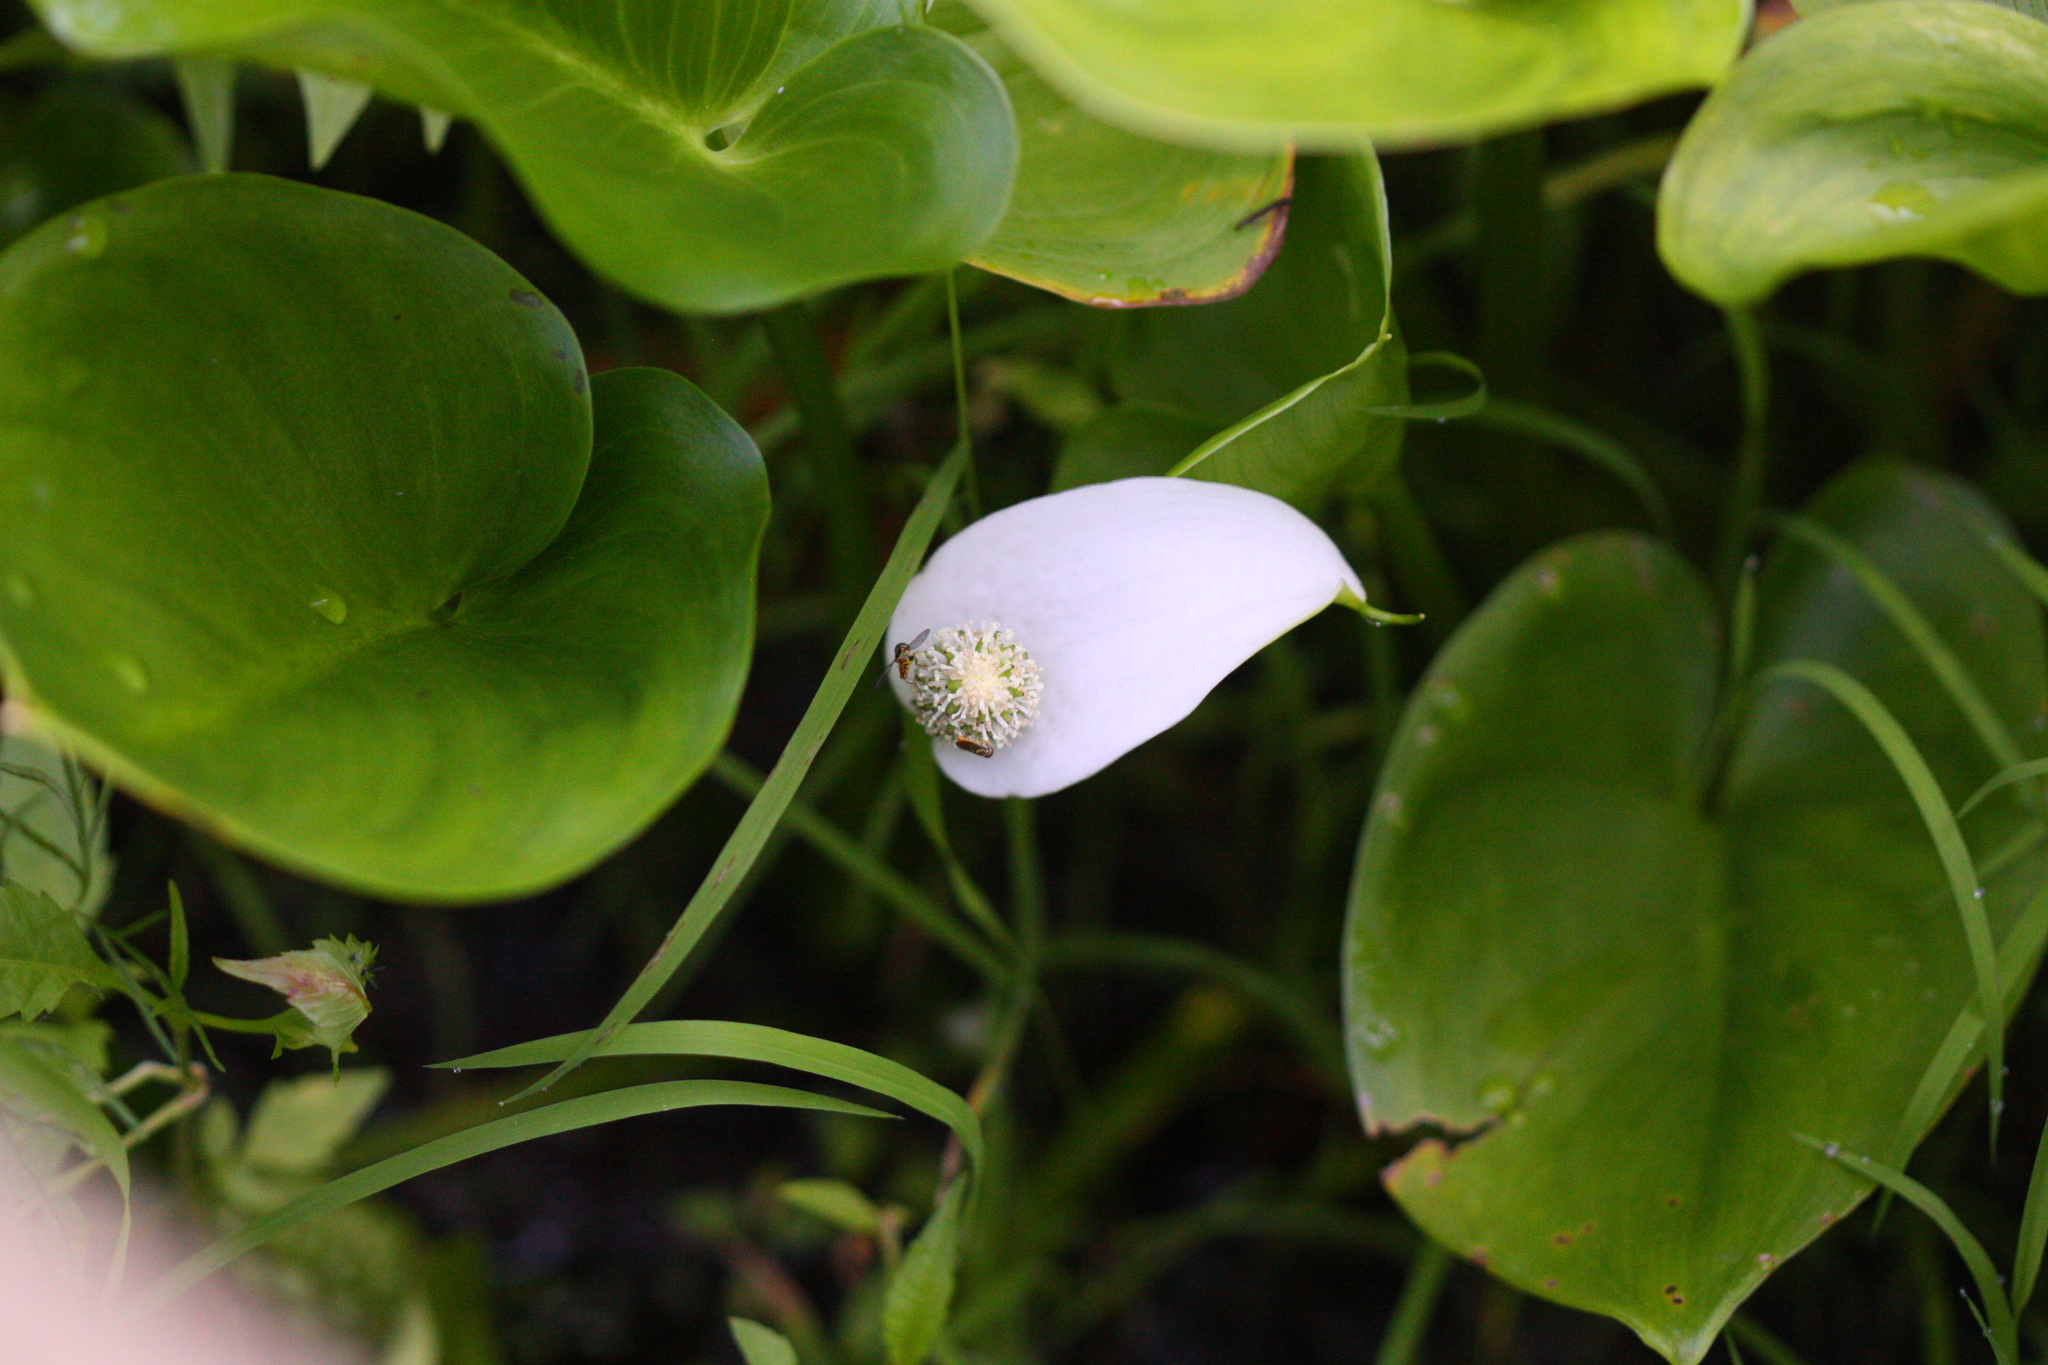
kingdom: Plantae
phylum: Tracheophyta
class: Liliopsida
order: Alismatales
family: Araceae
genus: Calla
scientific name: Calla palustris
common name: Bog arum
